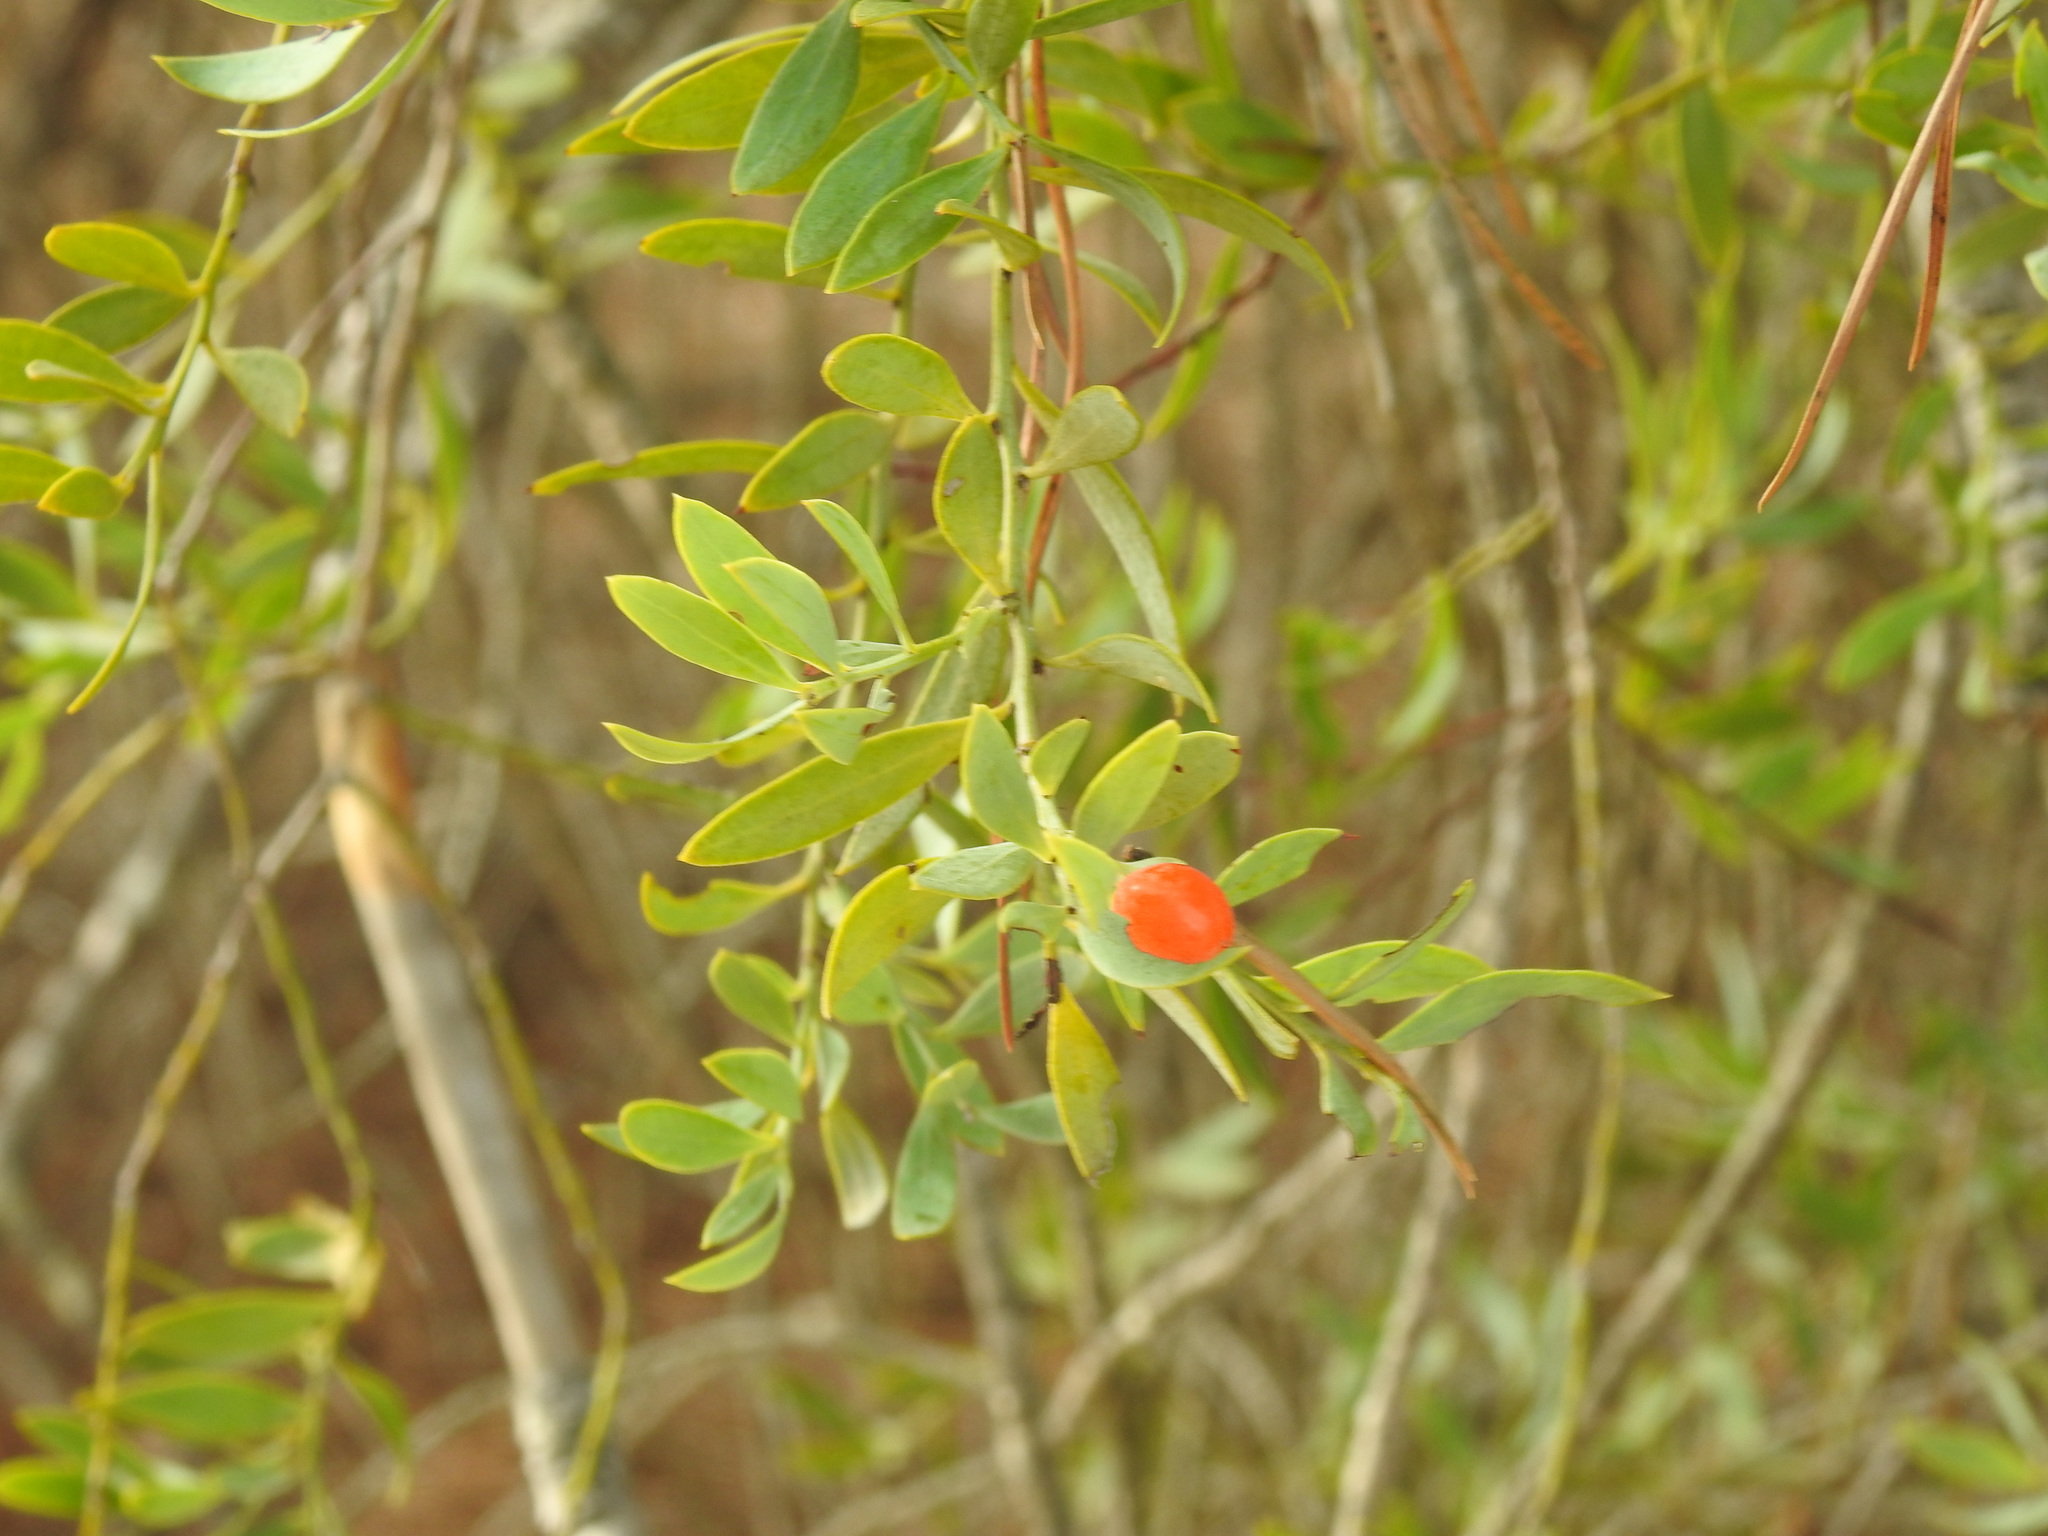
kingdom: Plantae
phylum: Tracheophyta
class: Magnoliopsida
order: Santalales
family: Santalaceae
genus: Osyris
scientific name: Osyris lanceolata
